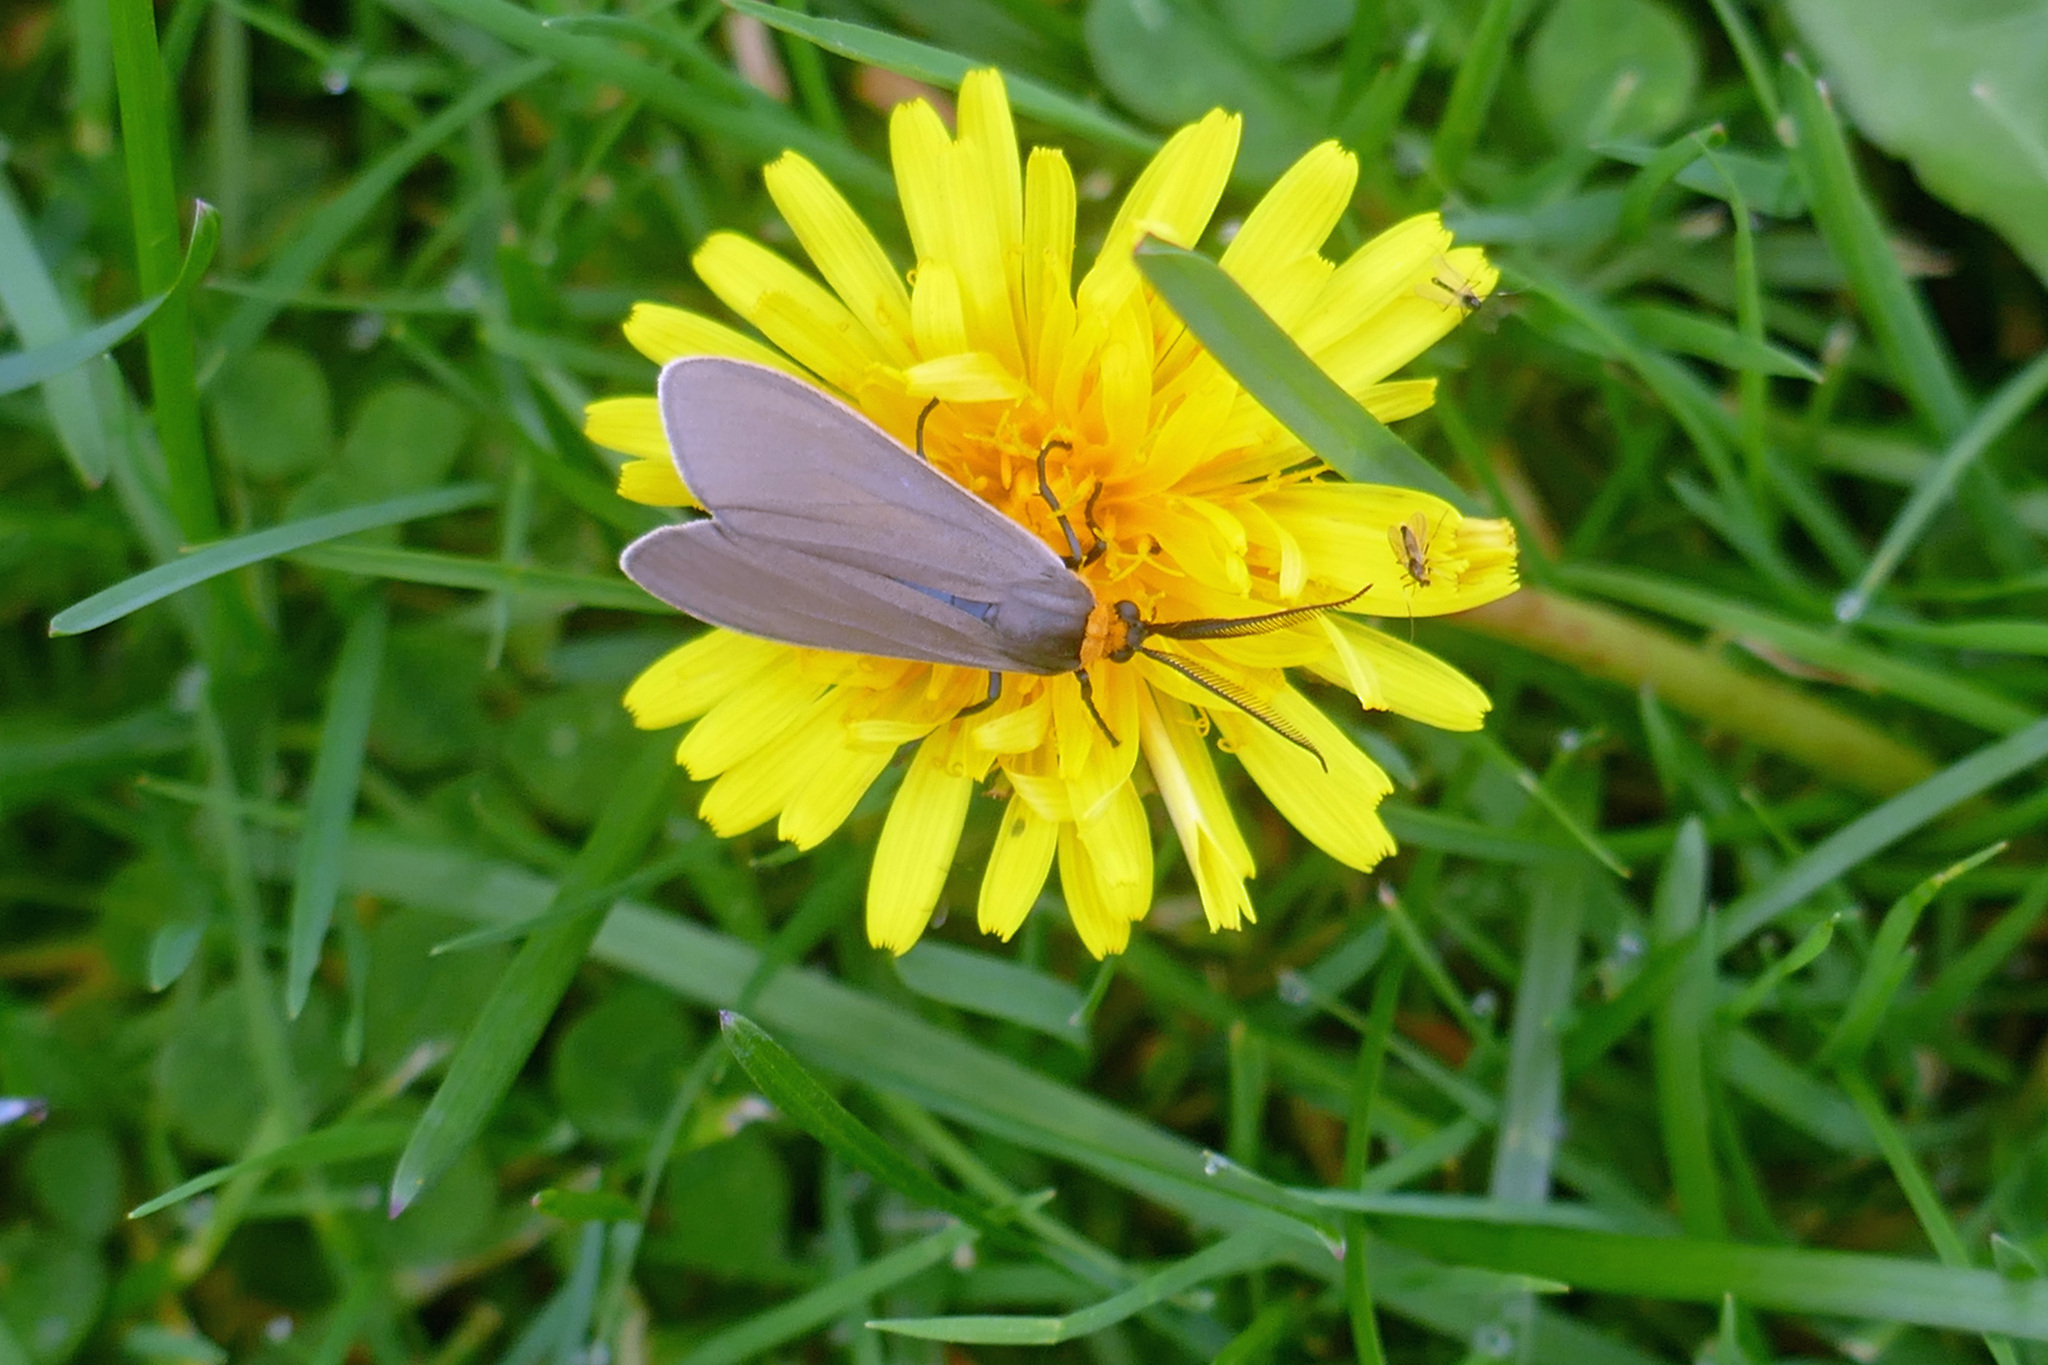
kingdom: Animalia
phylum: Arthropoda
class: Insecta
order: Lepidoptera
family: Erebidae
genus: Cisseps
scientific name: Cisseps fulvicollis
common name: Yellow-collared scape moth
